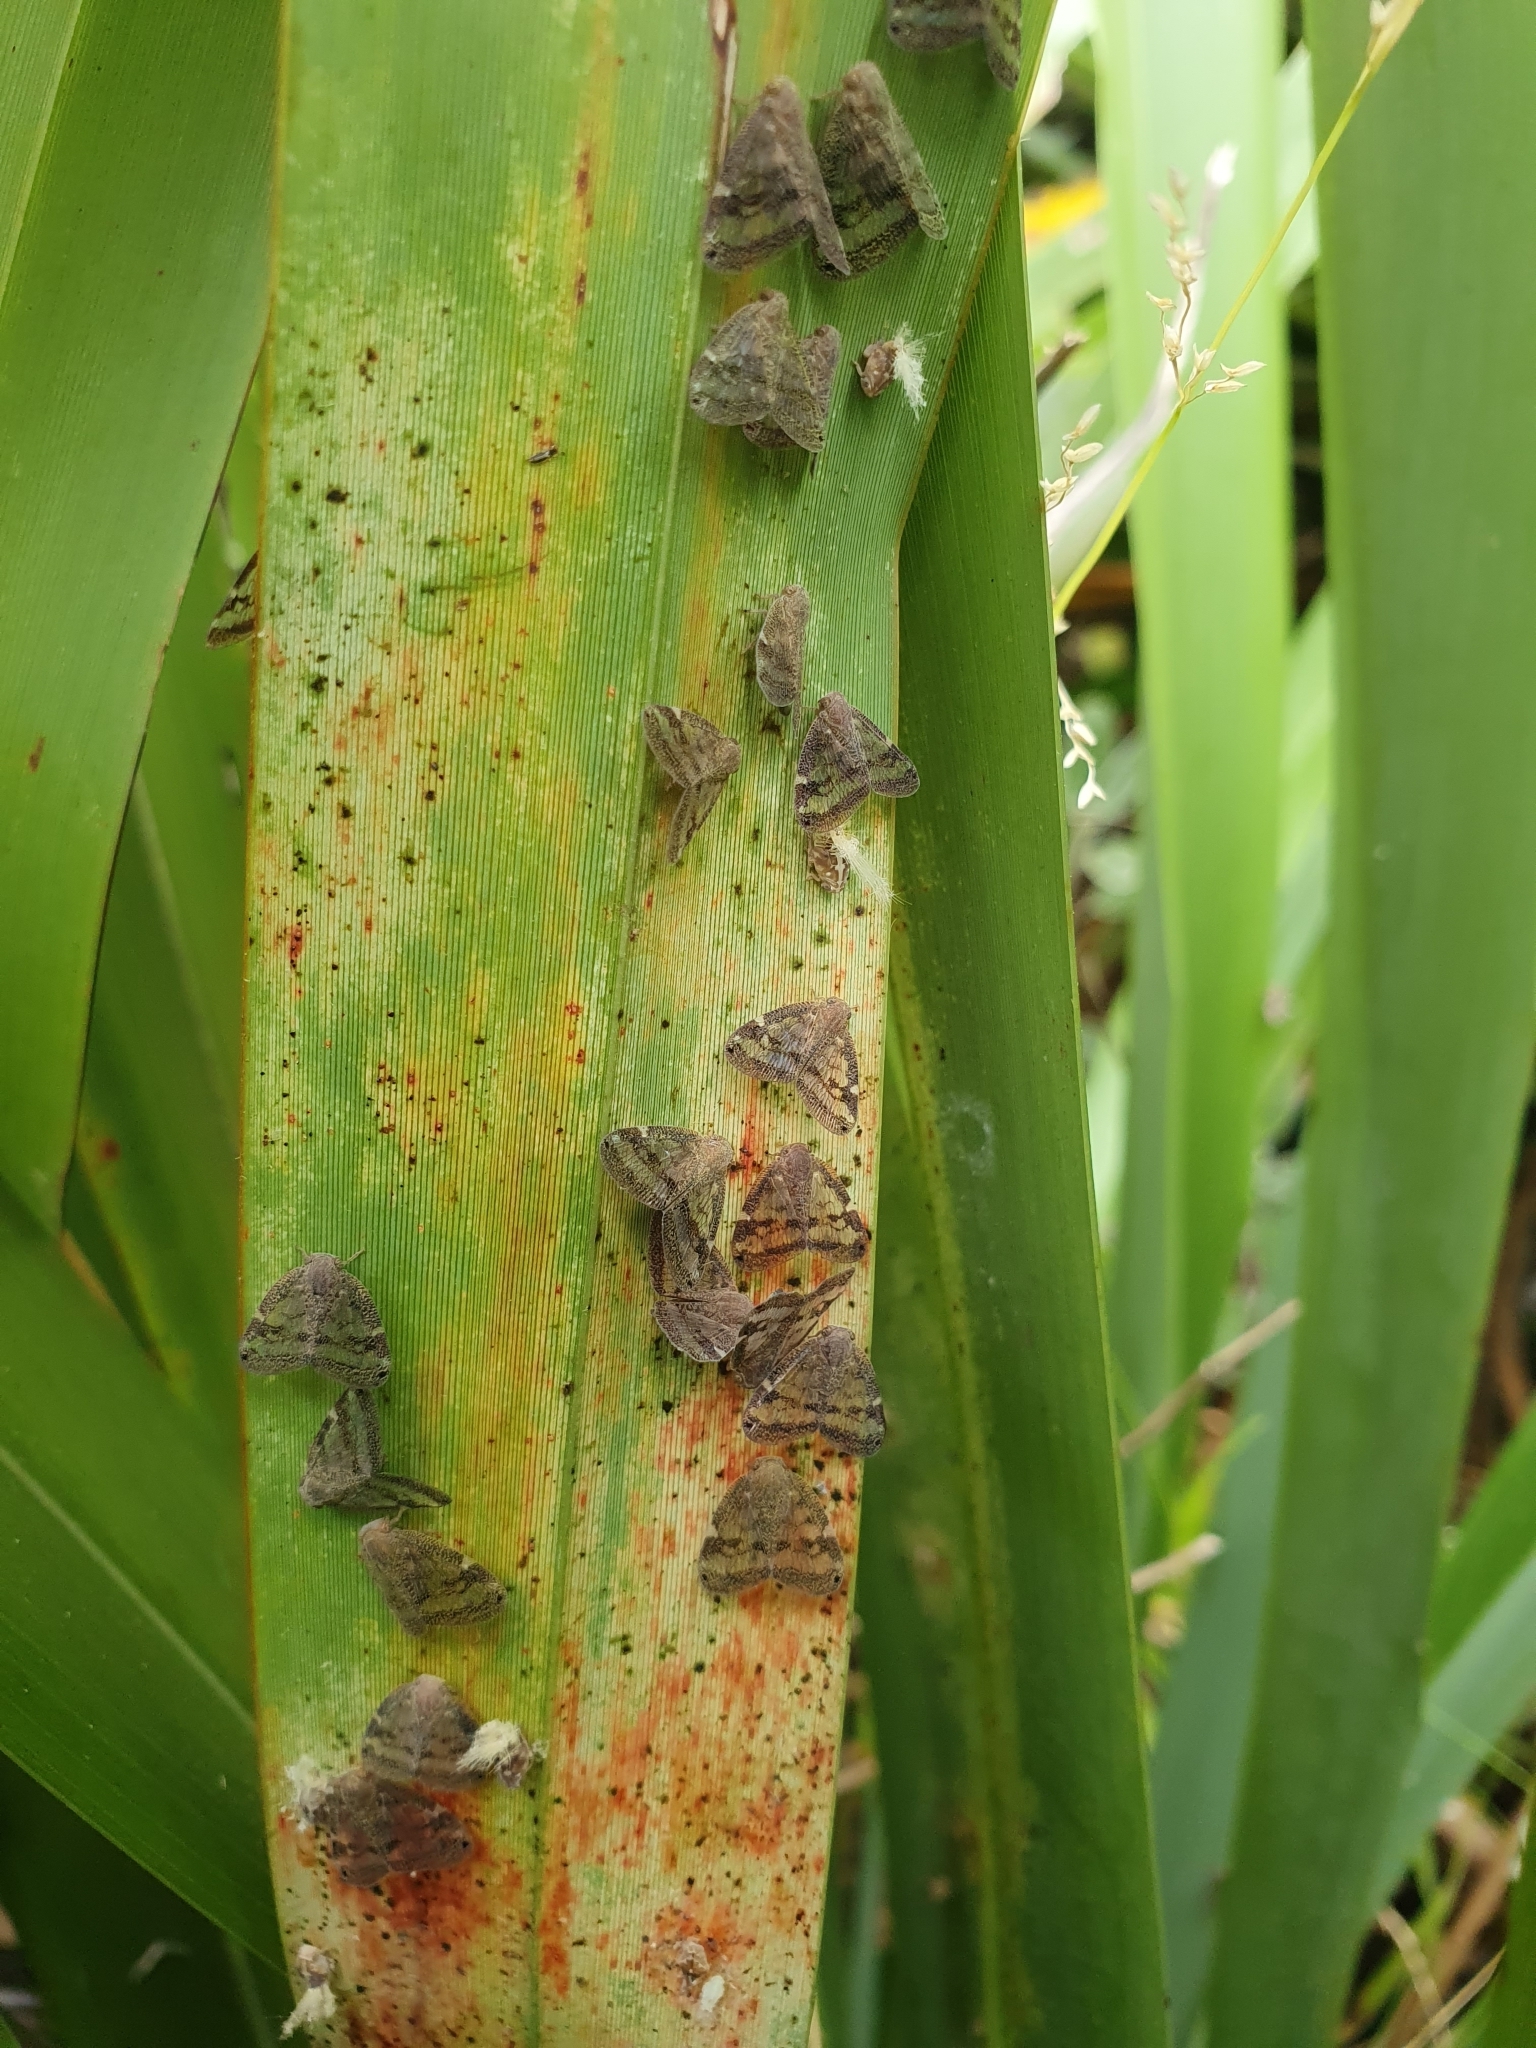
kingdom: Animalia
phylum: Arthropoda
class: Insecta
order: Hemiptera
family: Ricaniidae
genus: Scolypopa
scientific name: Scolypopa australis
